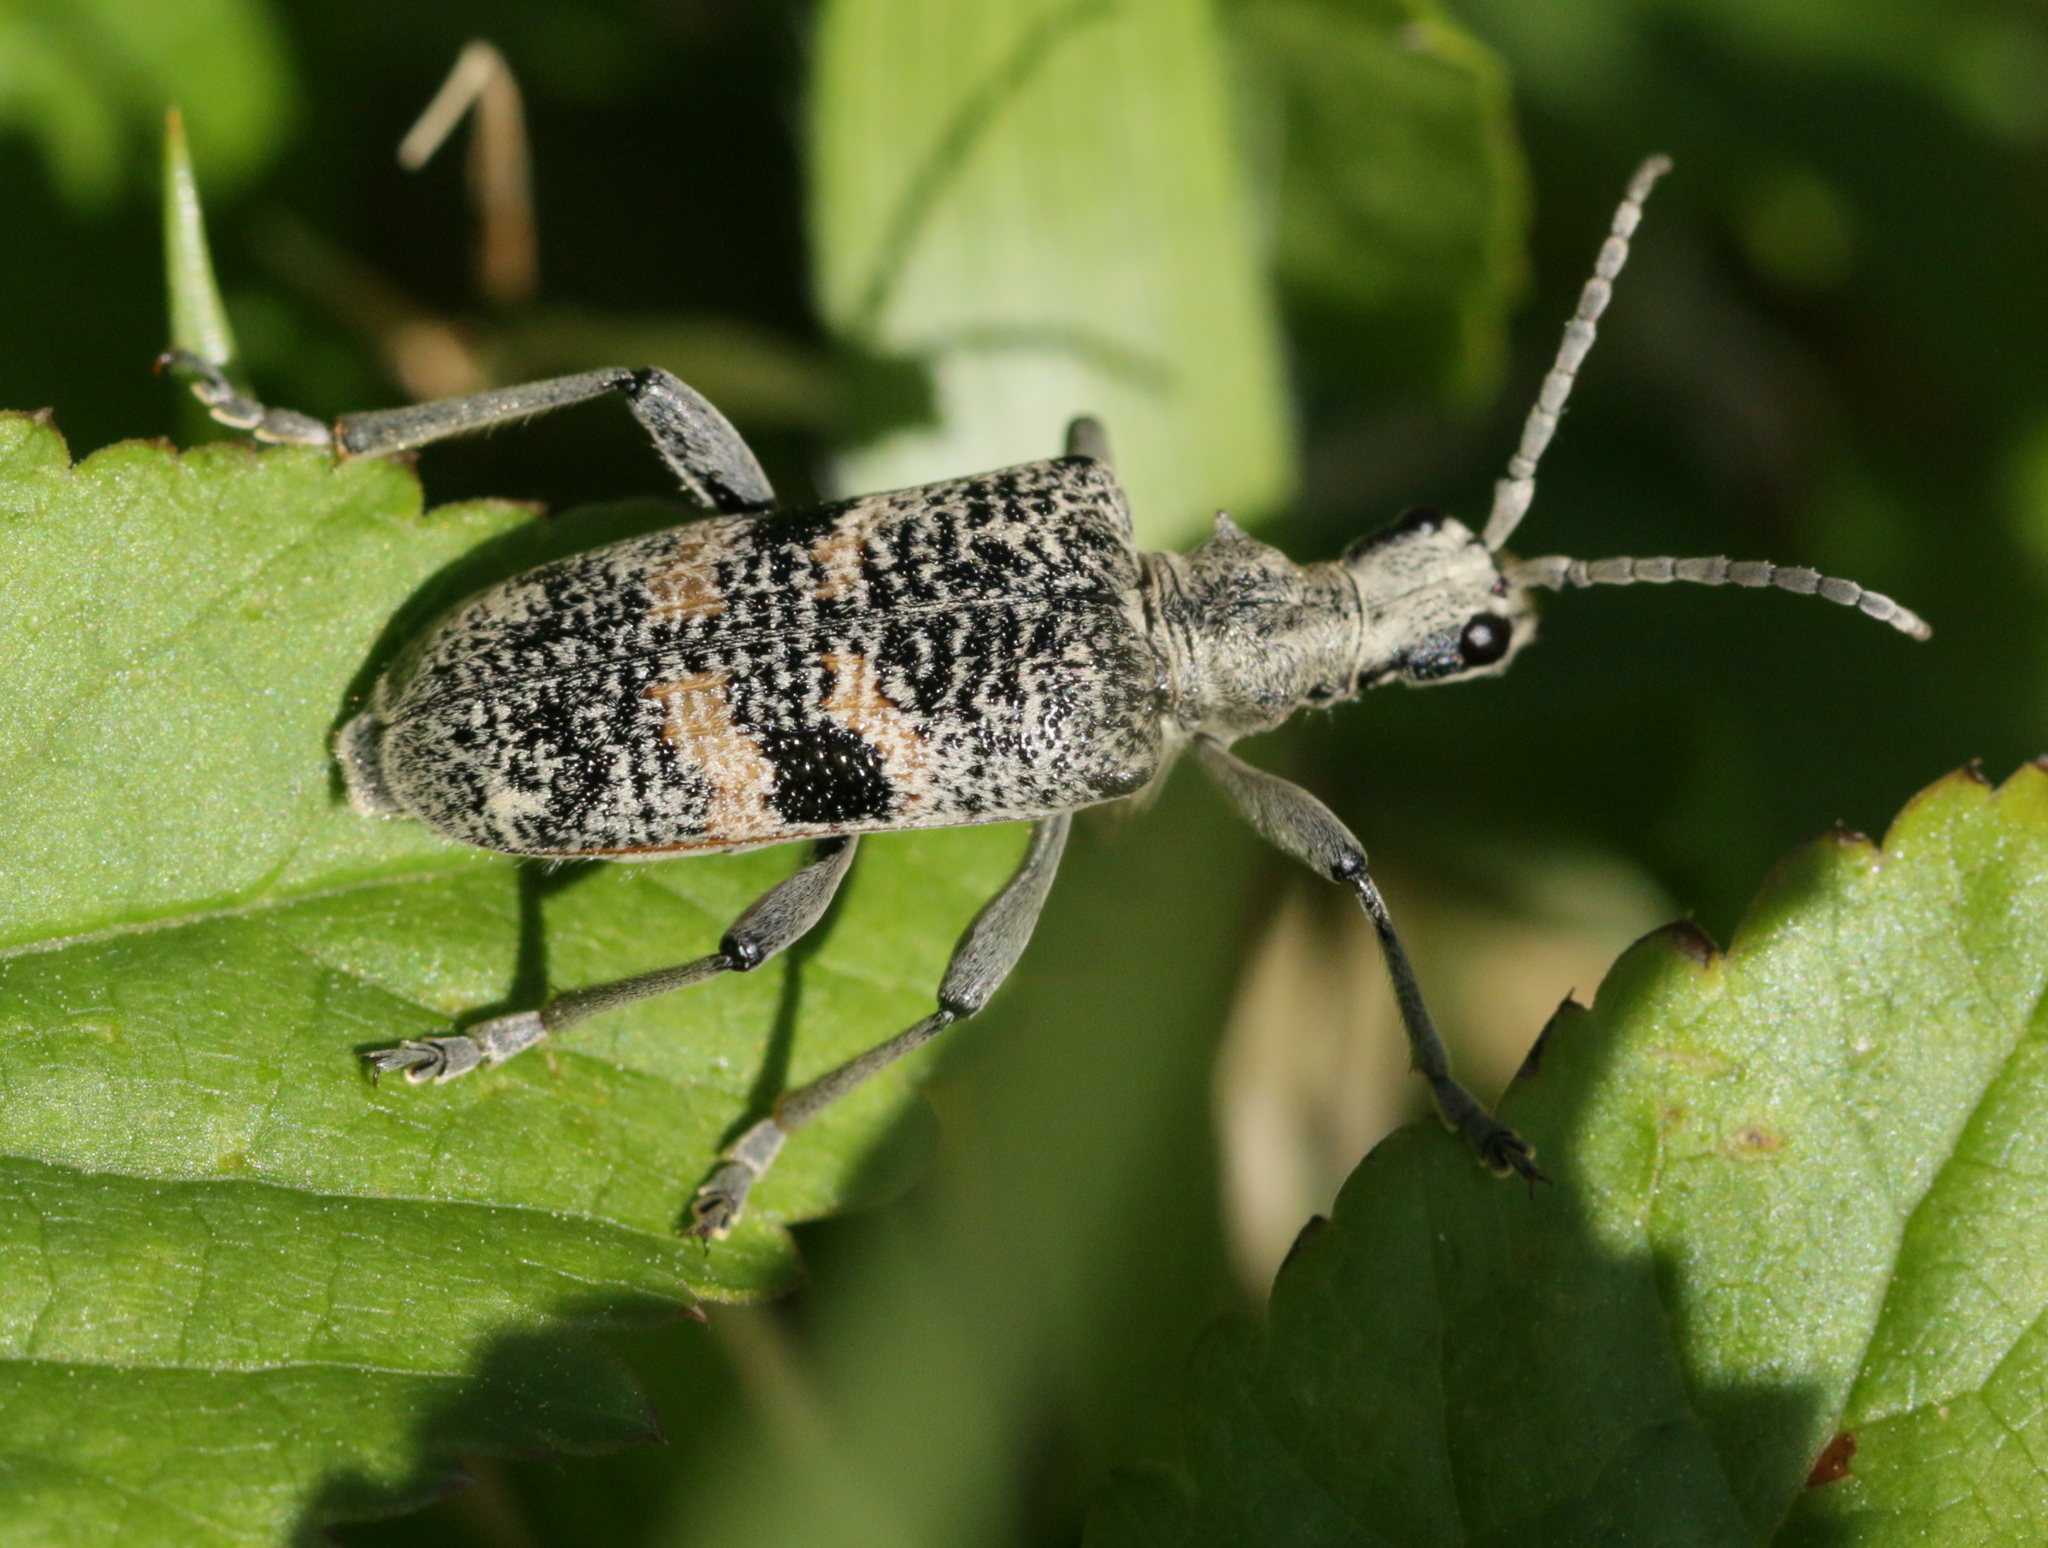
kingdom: Animalia
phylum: Arthropoda
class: Insecta
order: Coleoptera
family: Cerambycidae
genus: Rhagium
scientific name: Rhagium mordax
